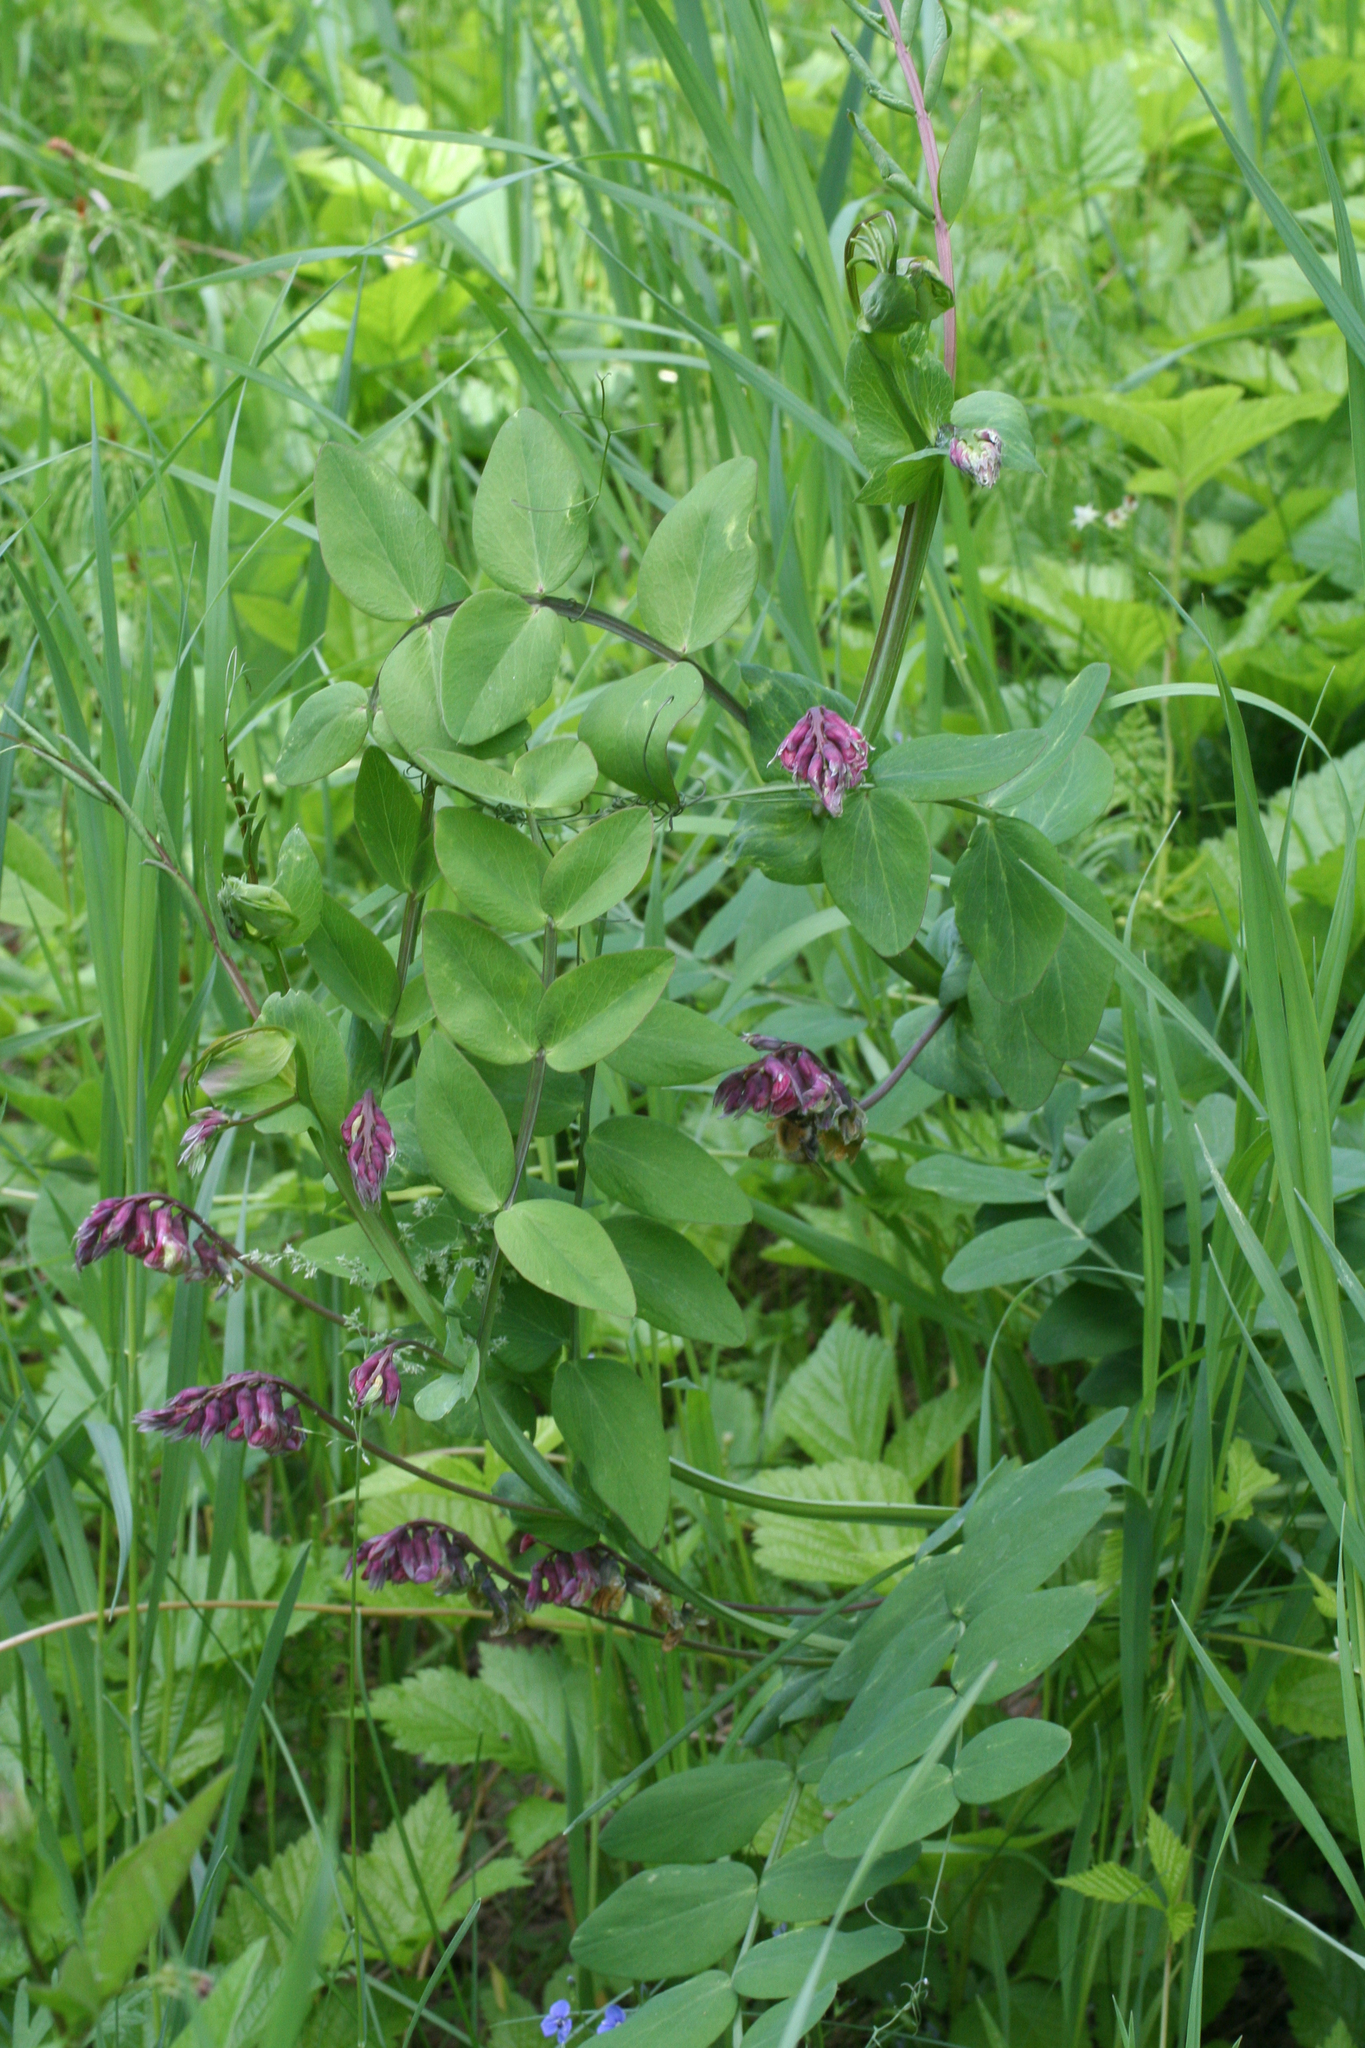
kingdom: Plantae
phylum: Tracheophyta
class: Magnoliopsida
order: Fabales
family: Fabaceae
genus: Lathyrus
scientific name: Lathyrus pisiformis
